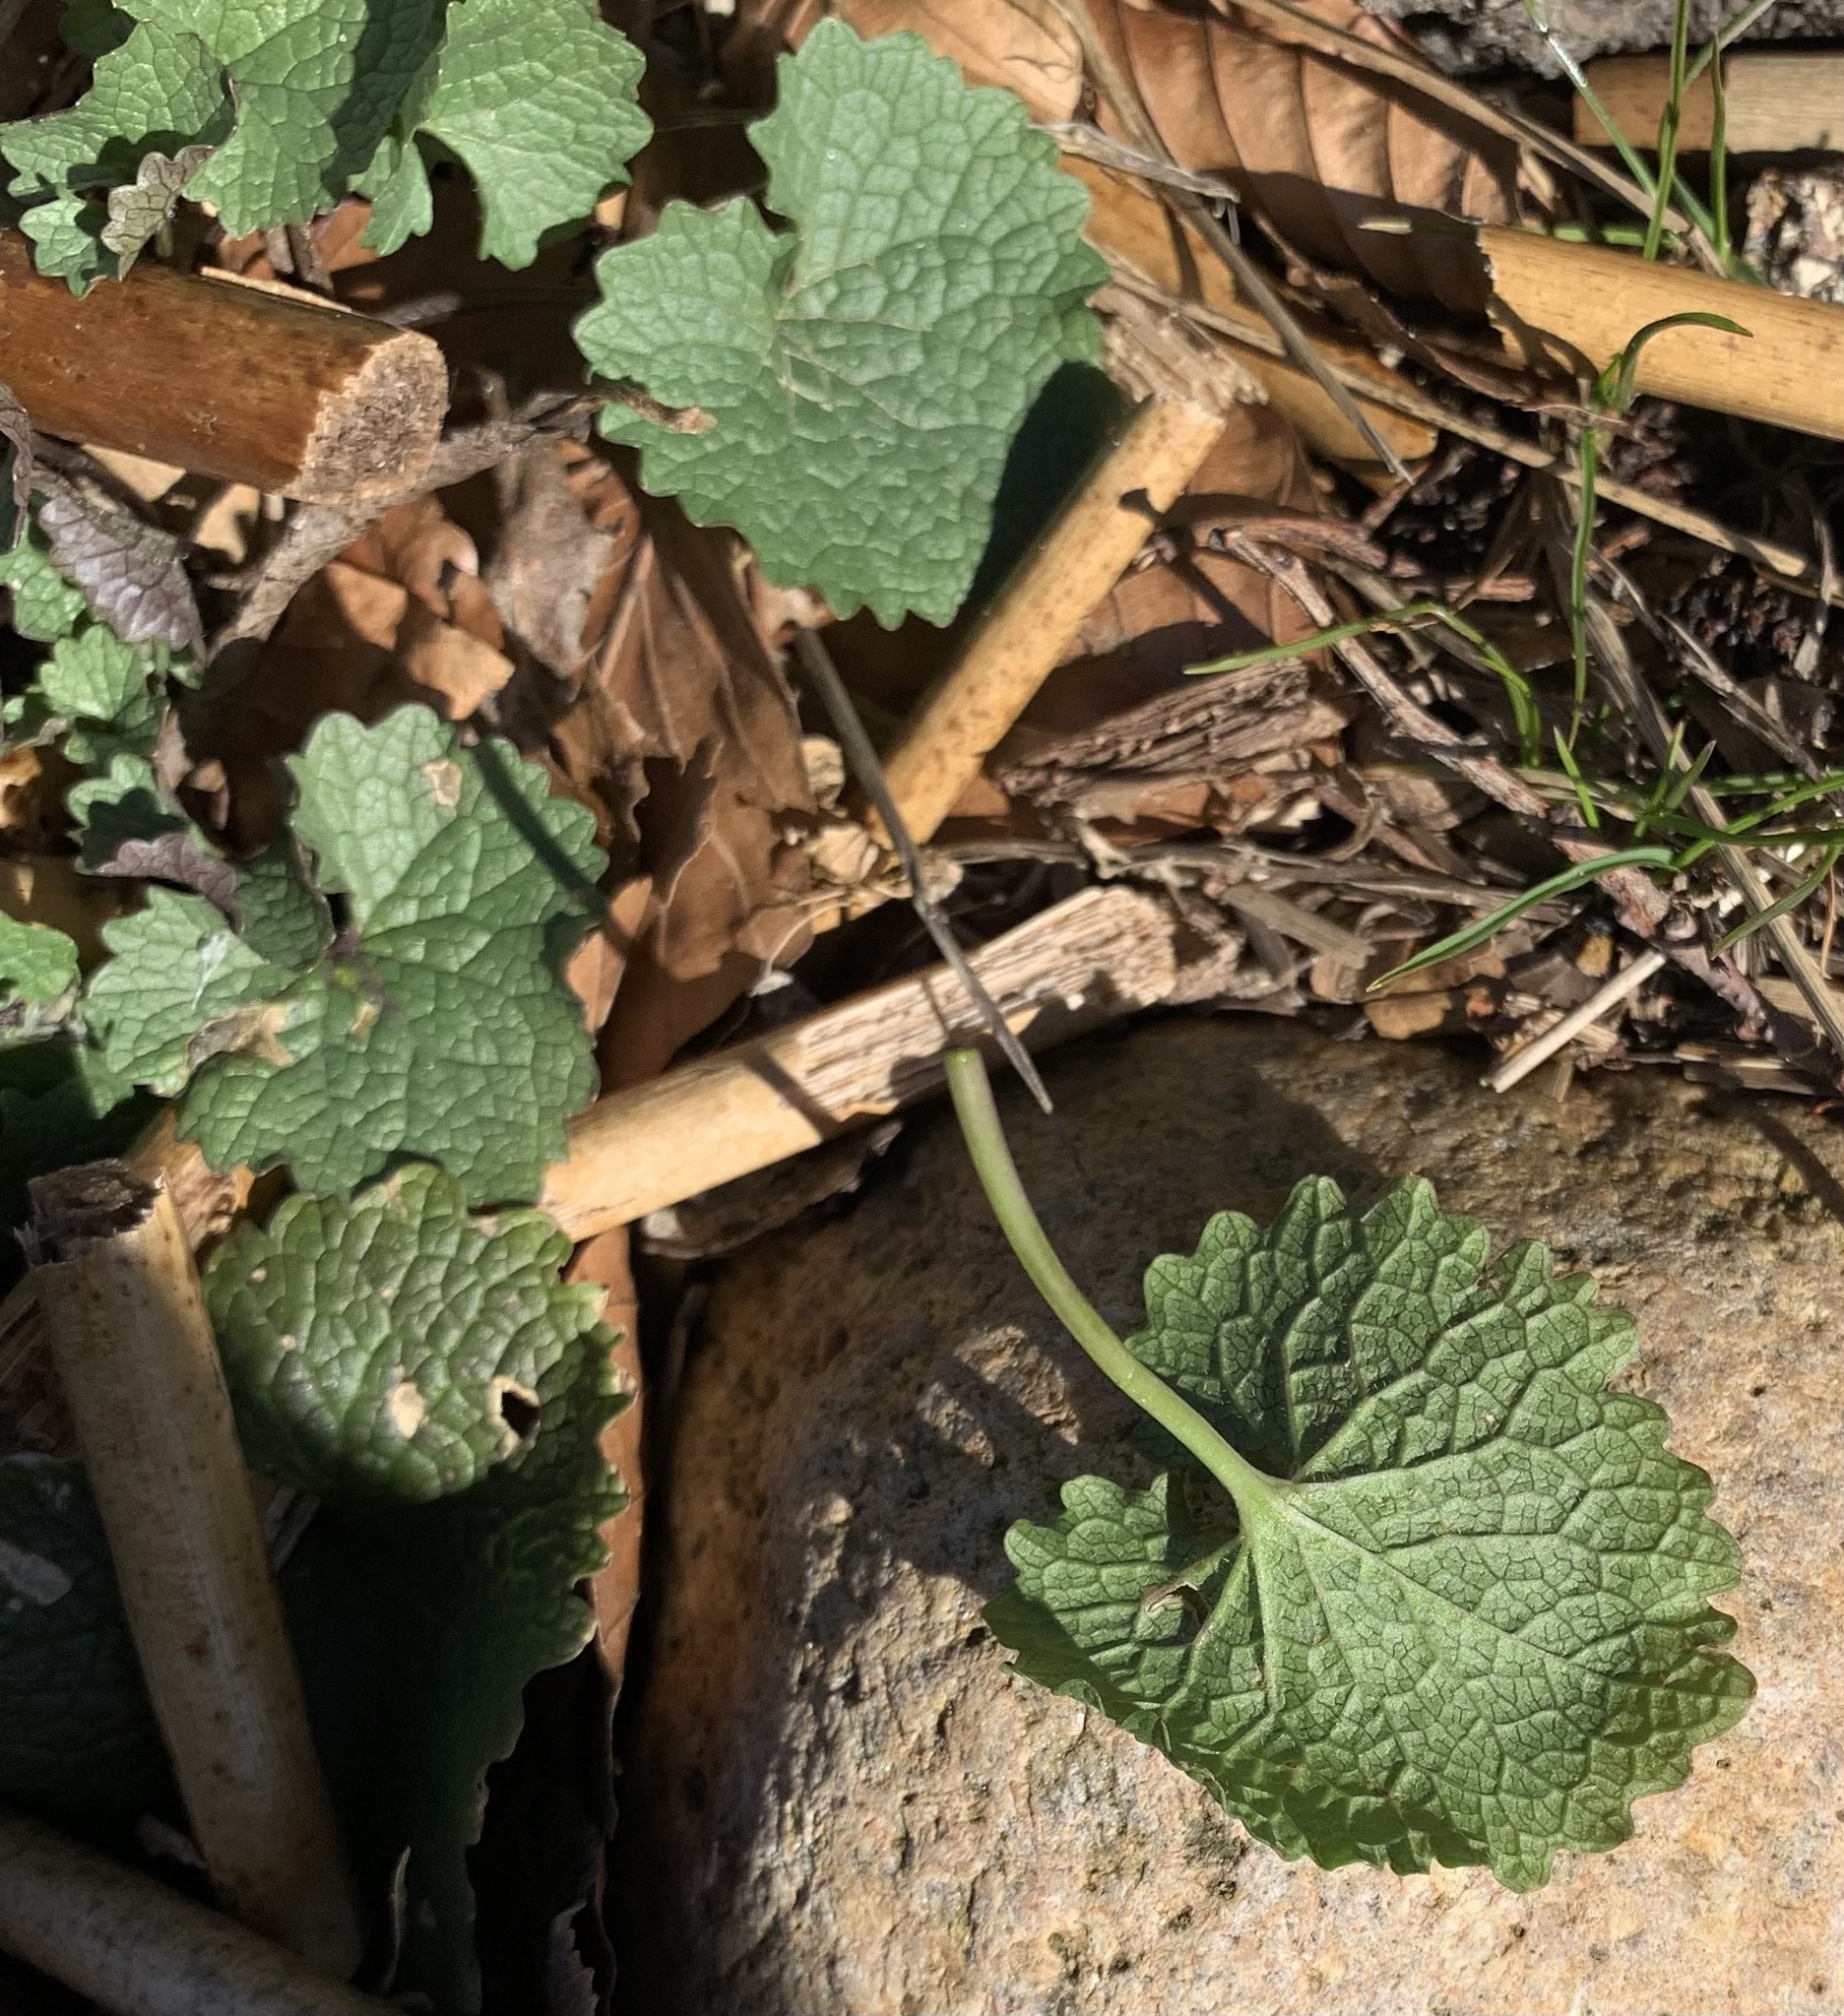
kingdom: Plantae
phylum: Tracheophyta
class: Magnoliopsida
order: Lamiales
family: Lamiaceae
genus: Glechoma
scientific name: Glechoma hederacea
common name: Ground ivy
